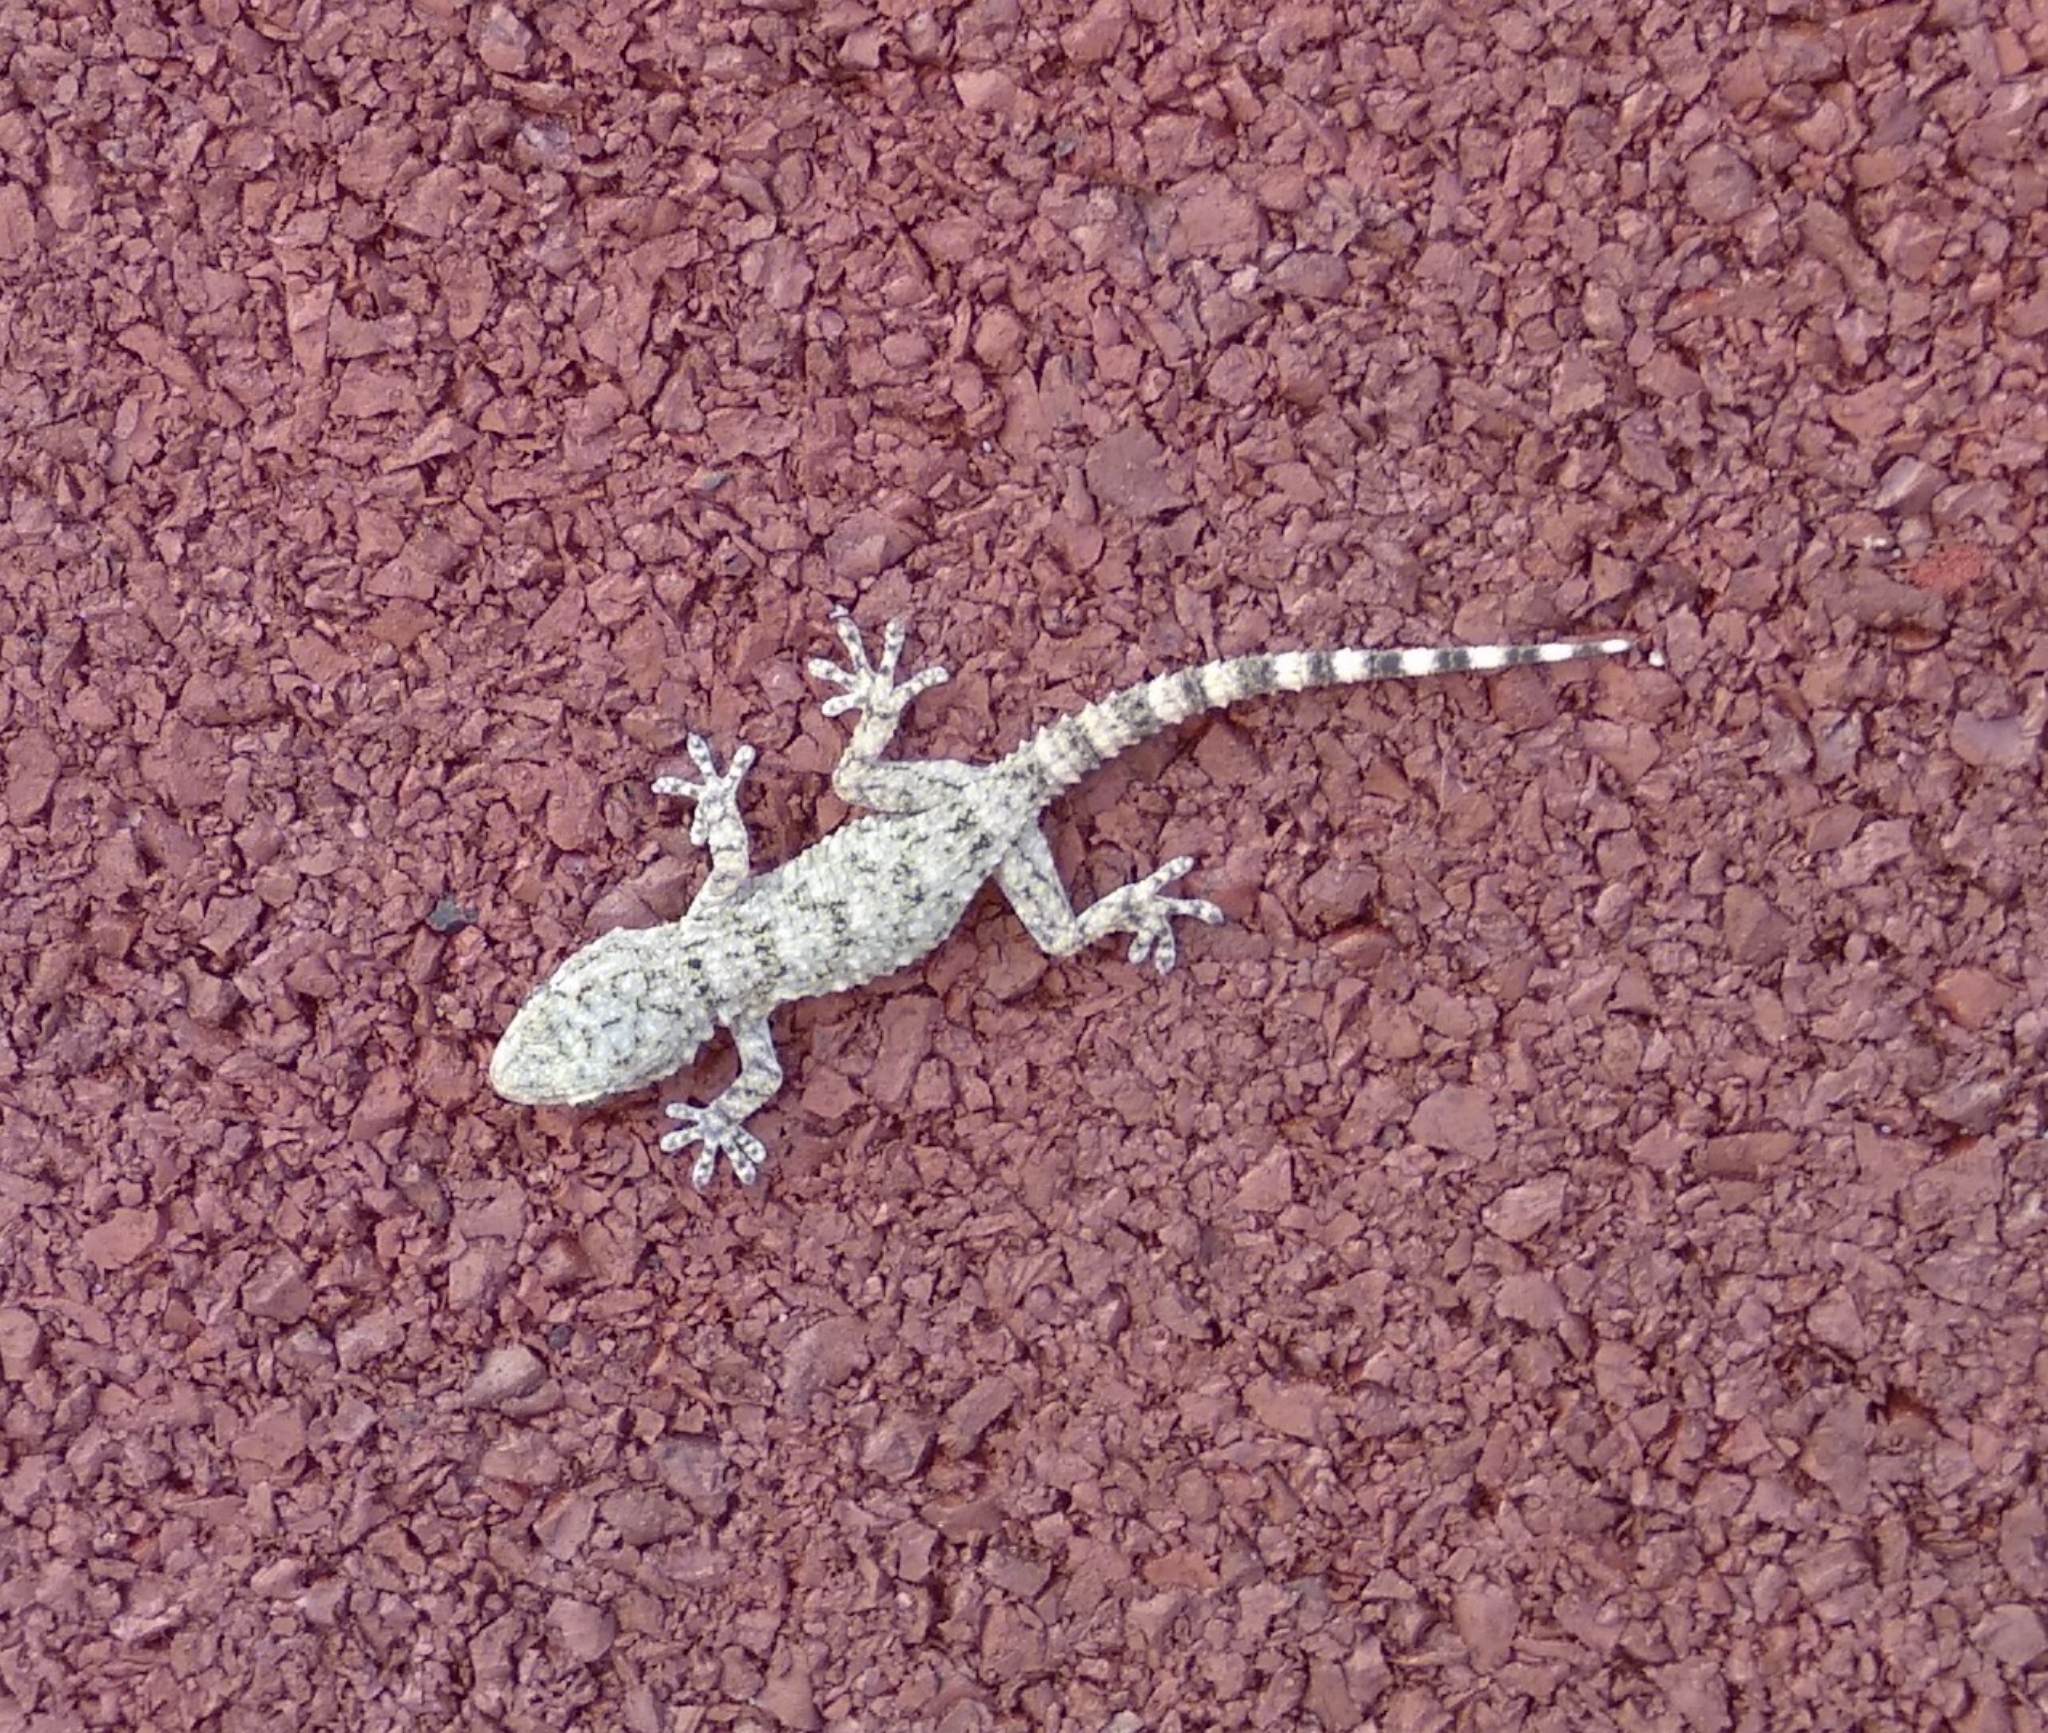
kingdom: Animalia
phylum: Chordata
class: Squamata
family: Phyllodactylidae
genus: Tarentola
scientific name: Tarentola mauritanica
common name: Moorish gecko
